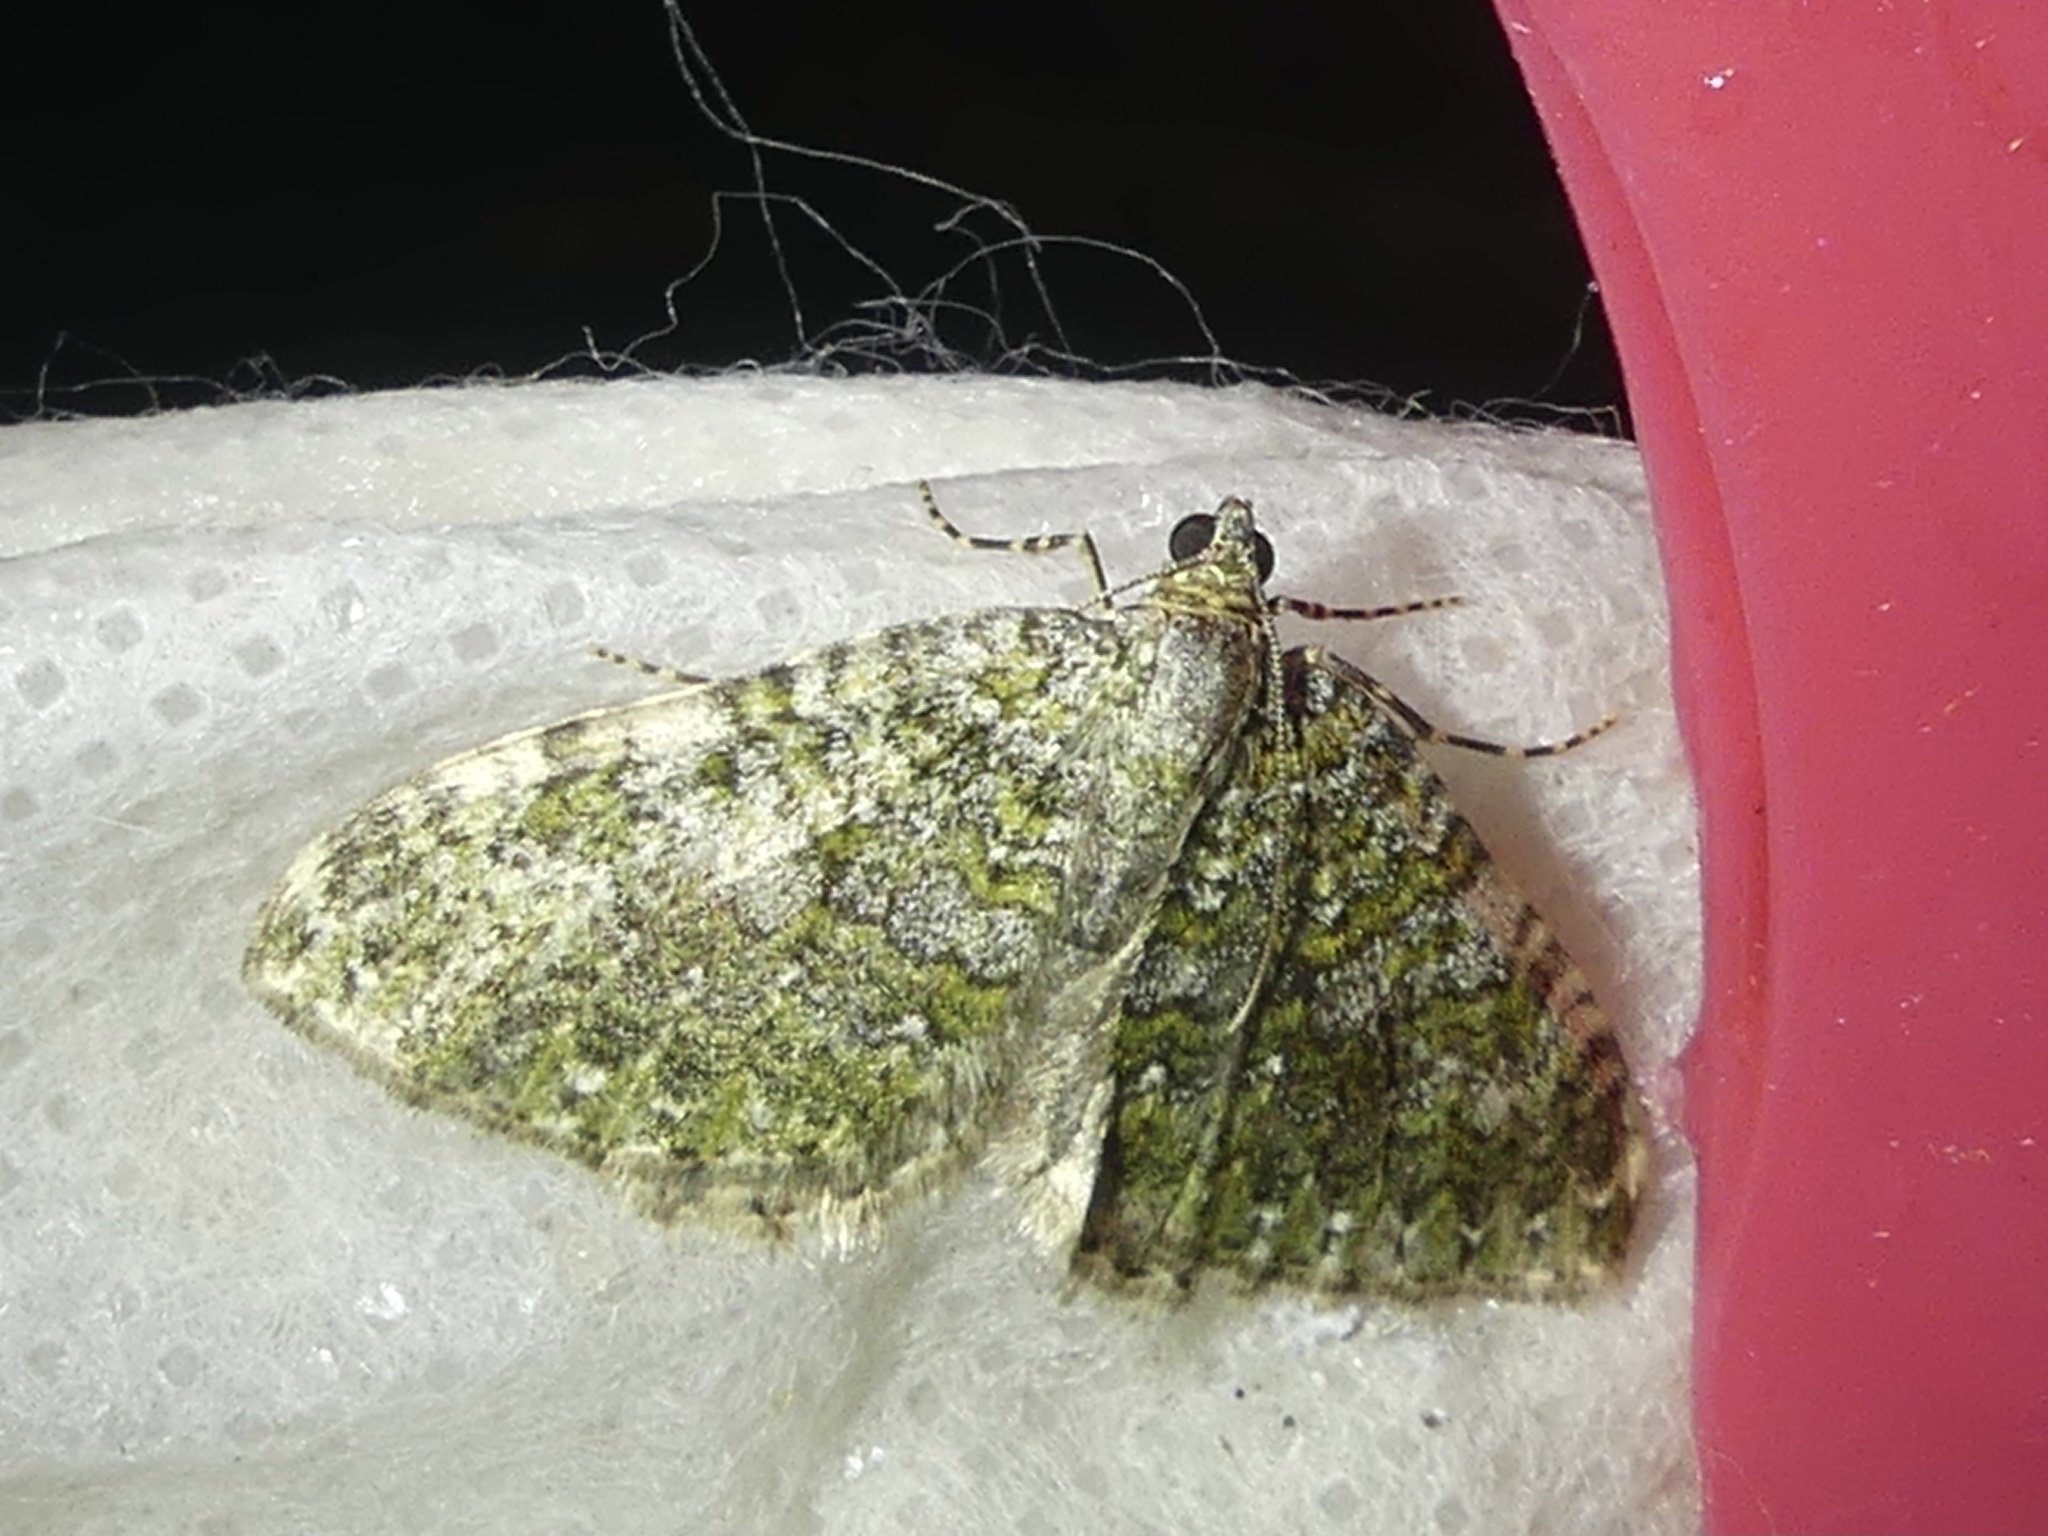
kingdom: Animalia
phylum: Arthropoda
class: Insecta
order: Lepidoptera
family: Geometridae
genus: Euphyia
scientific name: Euphyia frustata
